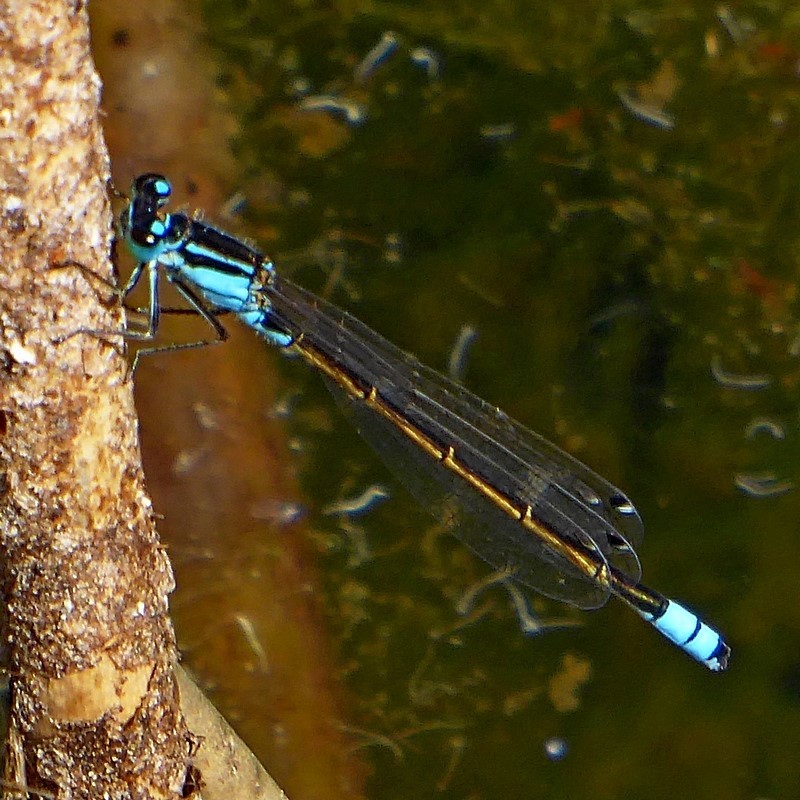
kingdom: Animalia
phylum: Arthropoda
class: Insecta
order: Odonata
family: Coenagrionidae
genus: Ischnura
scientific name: Ischnura heterosticta
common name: Common bluetail
